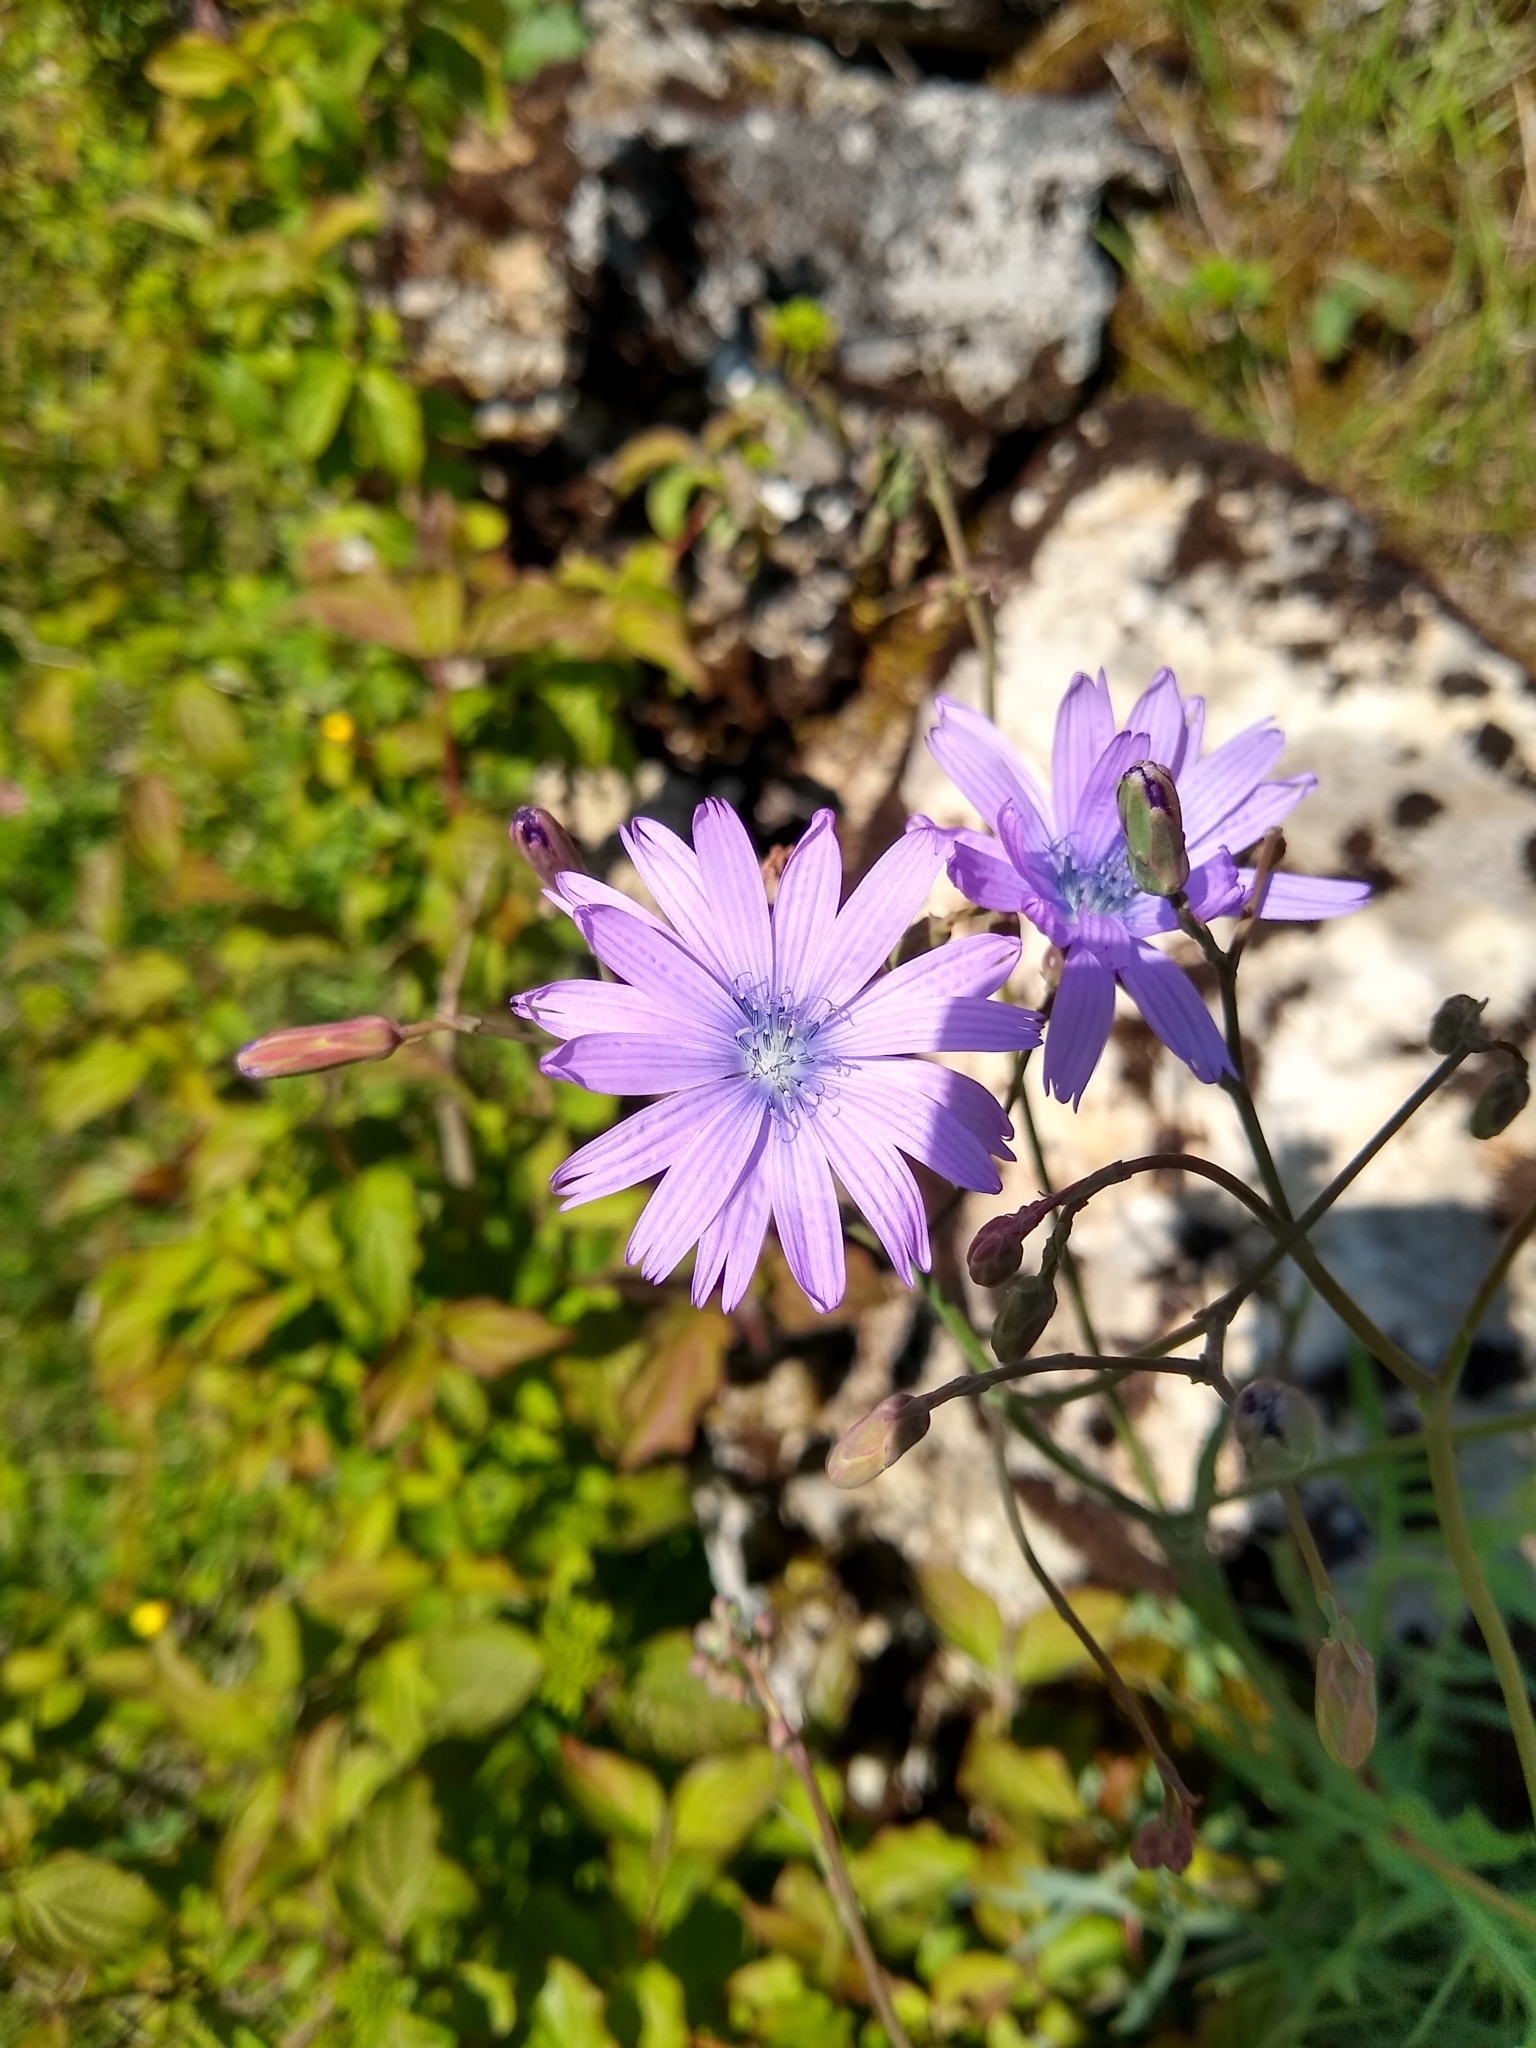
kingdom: Plantae
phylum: Tracheophyta
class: Magnoliopsida
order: Asterales
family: Asteraceae
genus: Lactuca
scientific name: Lactuca perennis
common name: Mountain lettuce
